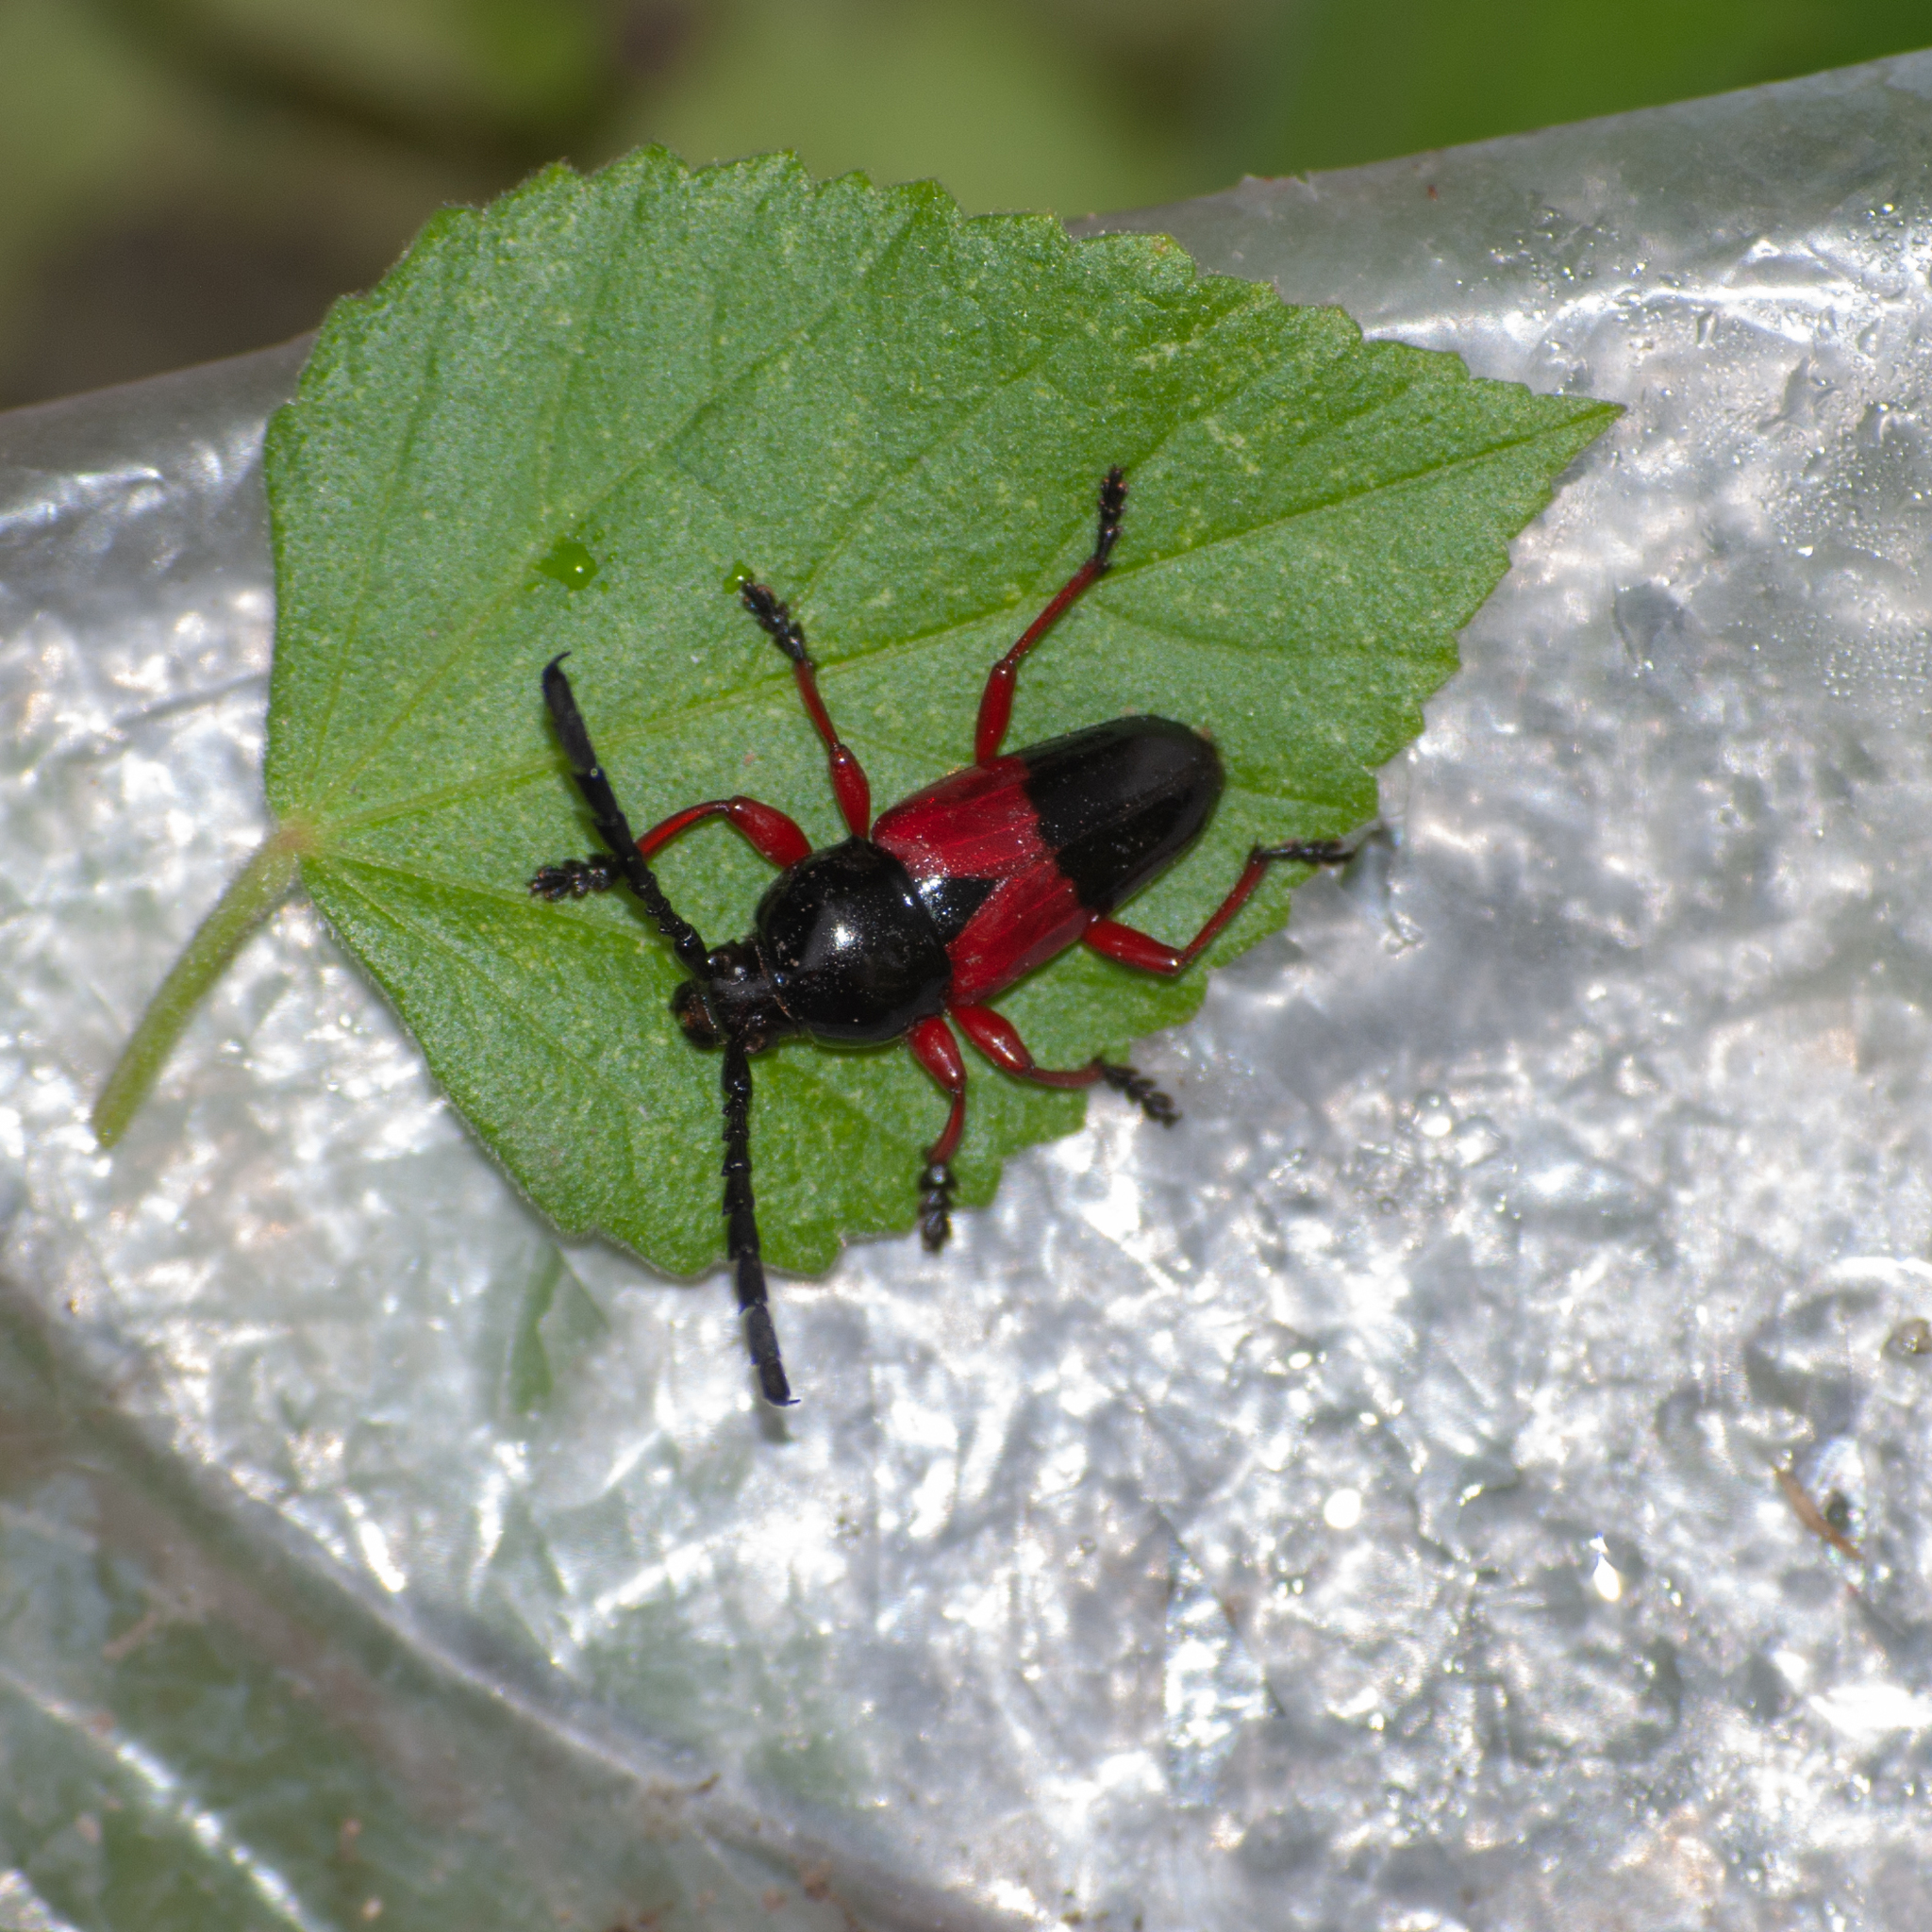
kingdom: Animalia
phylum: Arthropoda
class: Insecta
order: Coleoptera
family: Cerambycidae
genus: Lissonotus
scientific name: Lissonotus corallinus
